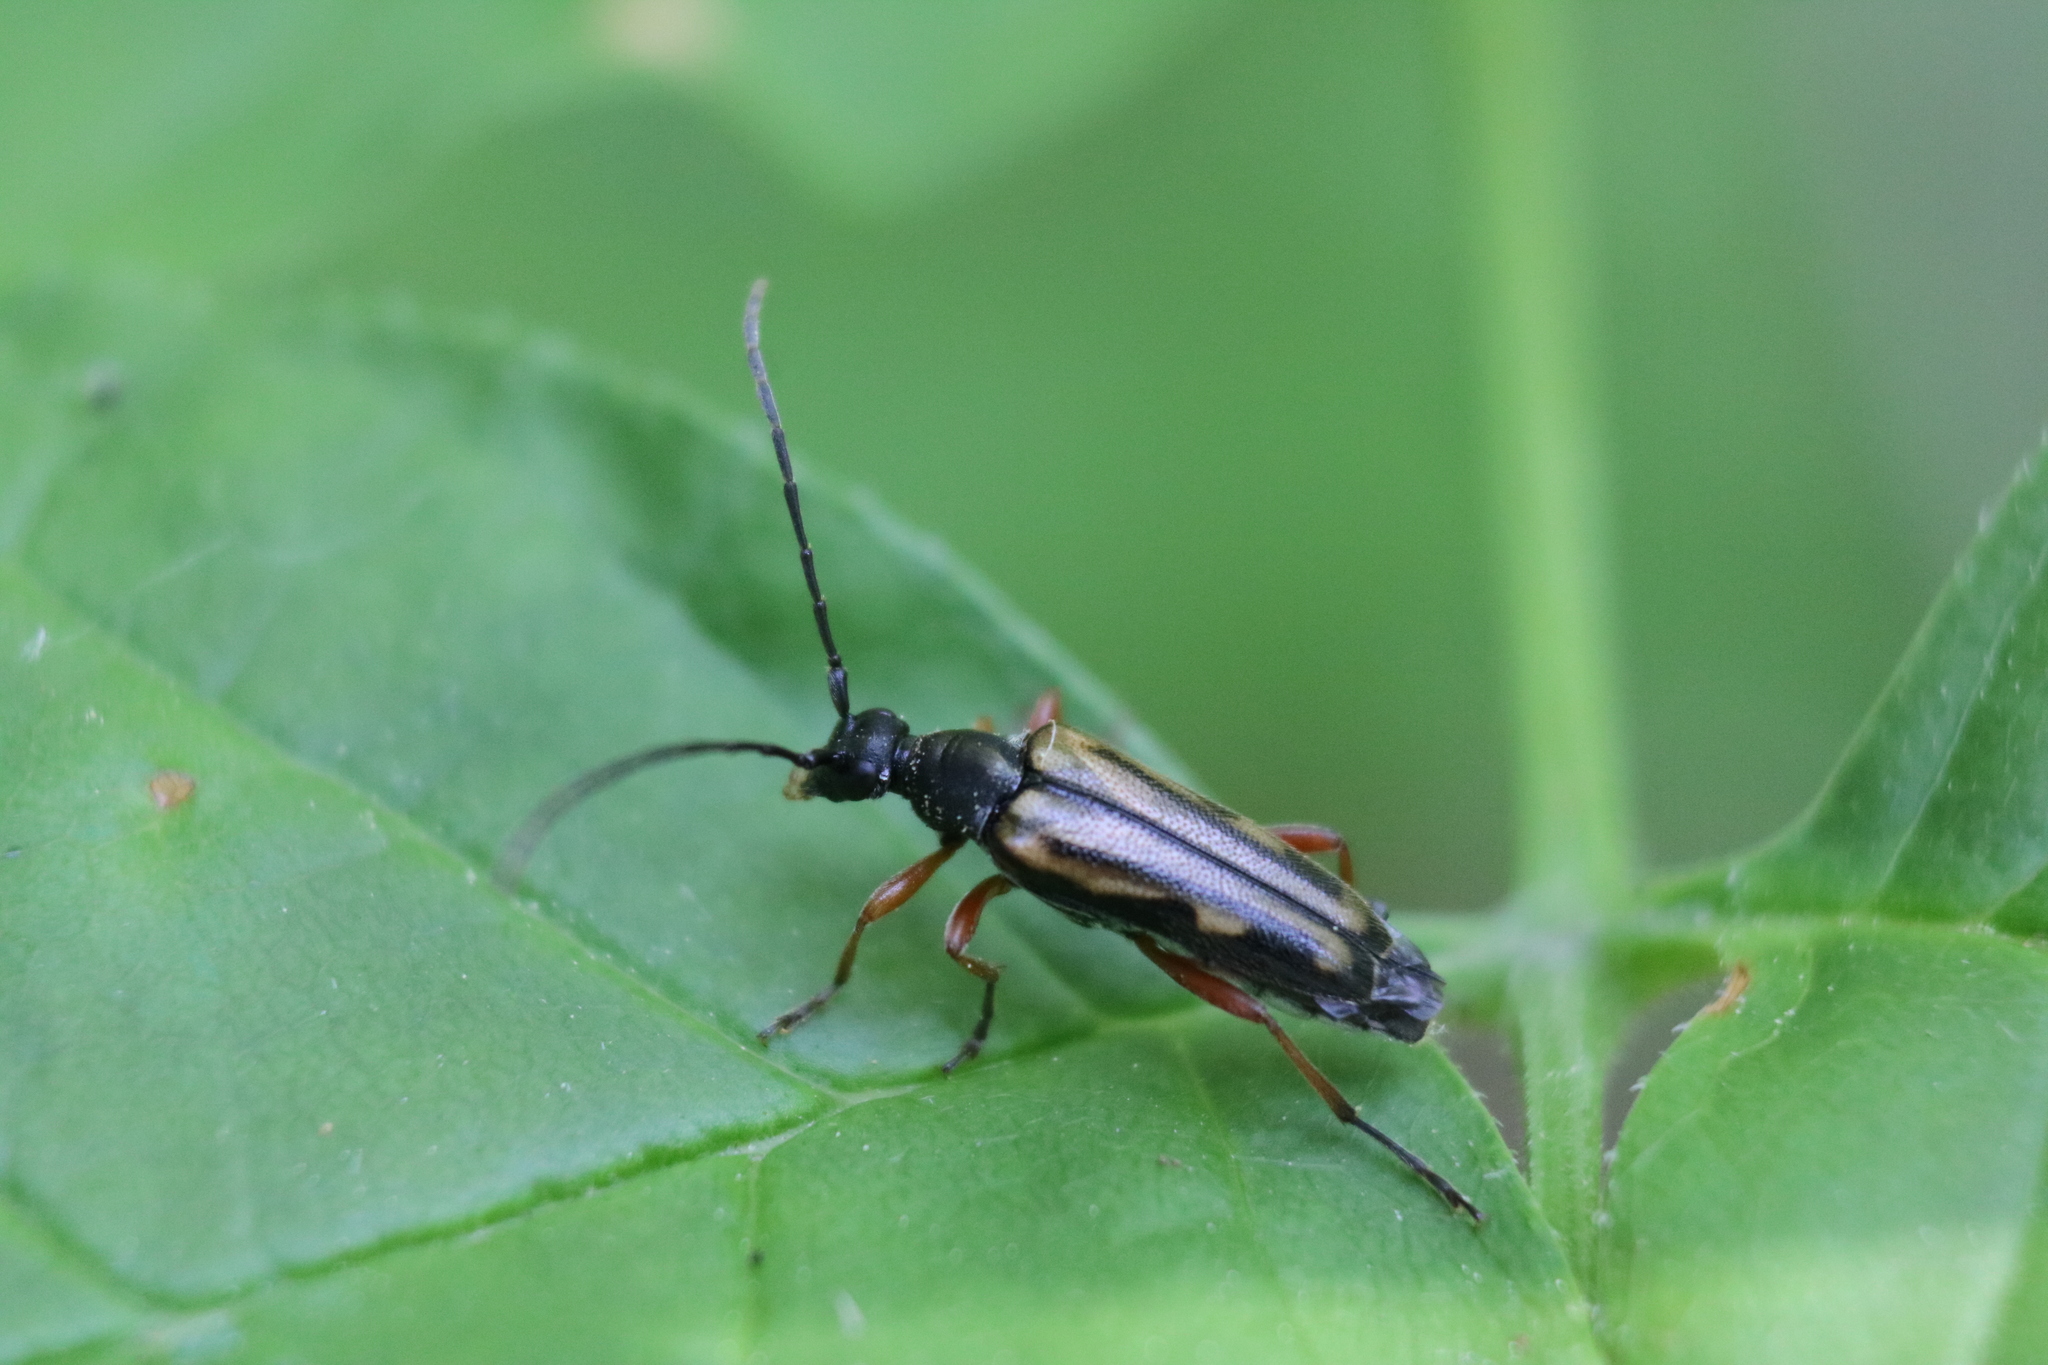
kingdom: Animalia
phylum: Arthropoda
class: Insecta
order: Coleoptera
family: Cerambycidae
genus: Analeptura
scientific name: Analeptura lineola
